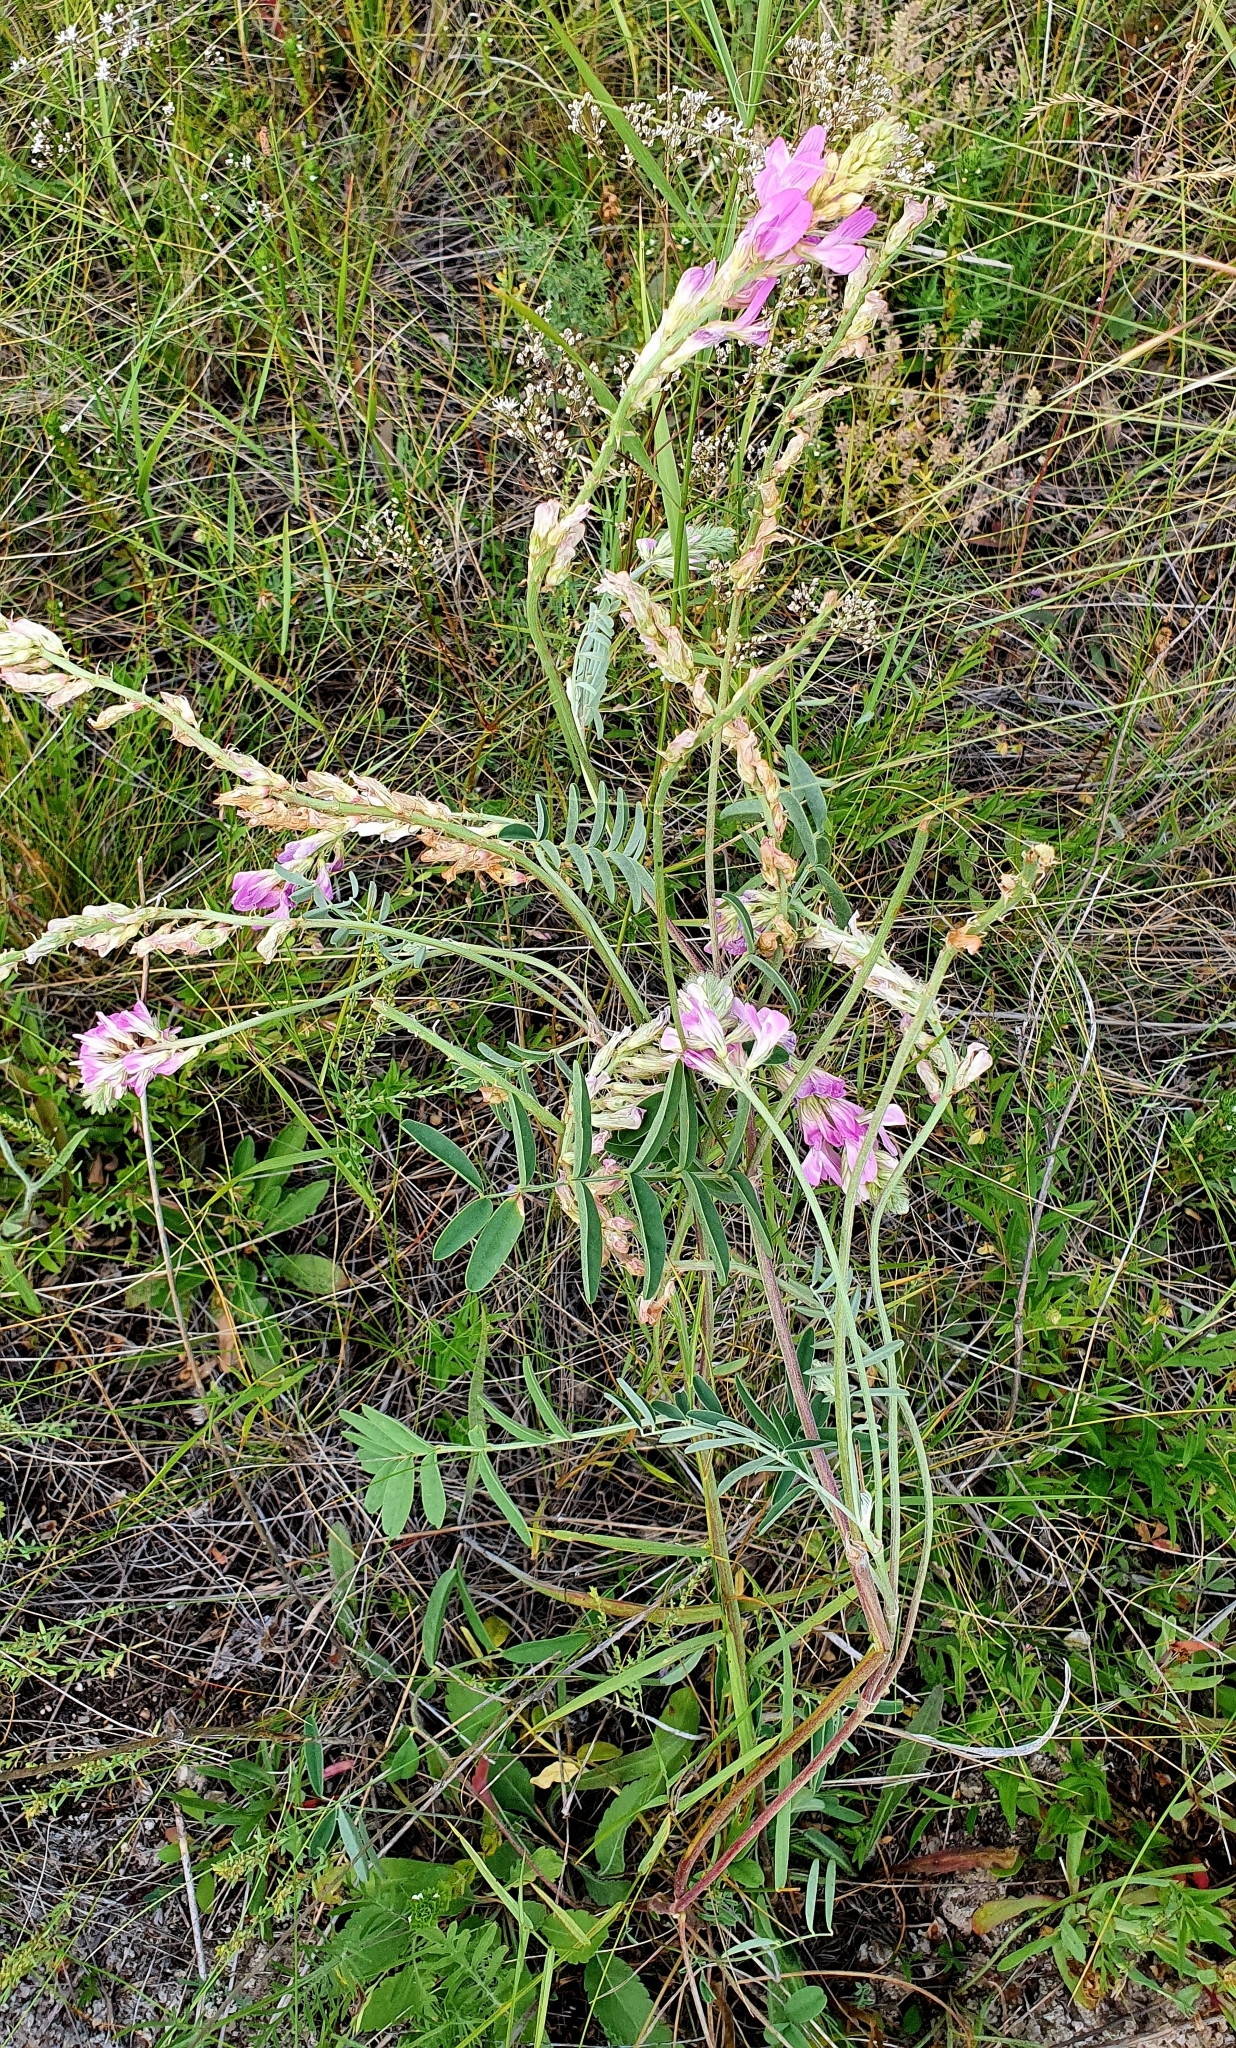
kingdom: Plantae
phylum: Tracheophyta
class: Magnoliopsida
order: Fabales
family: Fabaceae
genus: Hedysarum
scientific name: Hedysarum gmelinii
